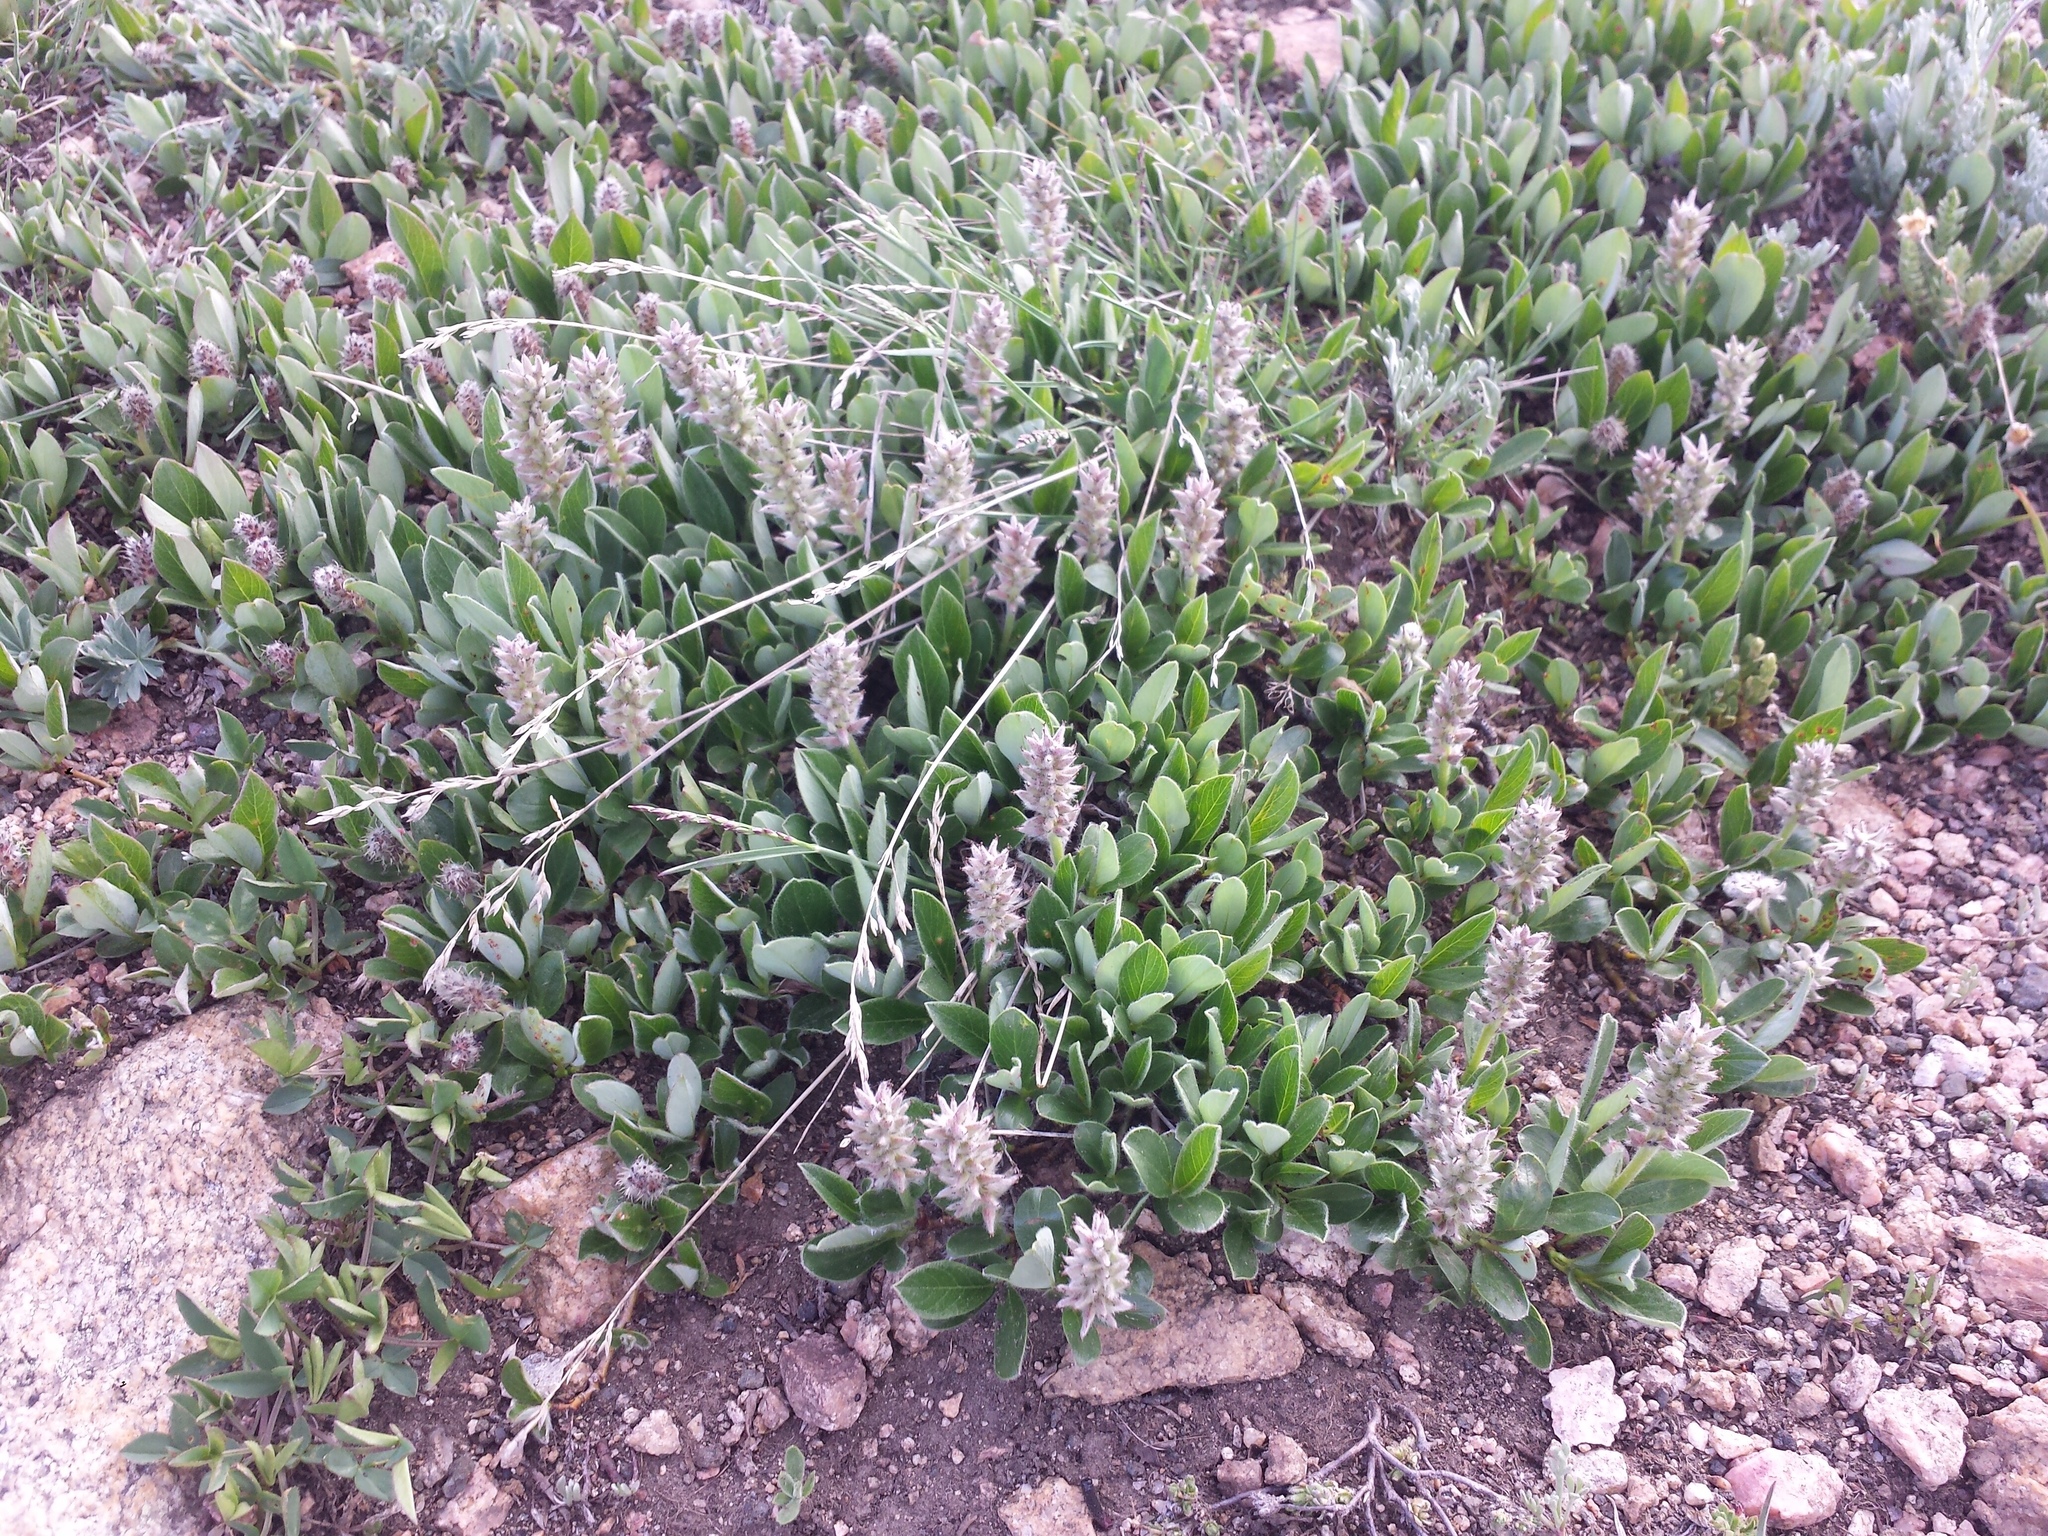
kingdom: Plantae
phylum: Tracheophyta
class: Magnoliopsida
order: Malpighiales
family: Salicaceae
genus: Salix
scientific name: Salix petrophila
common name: Rocky mountain willow
